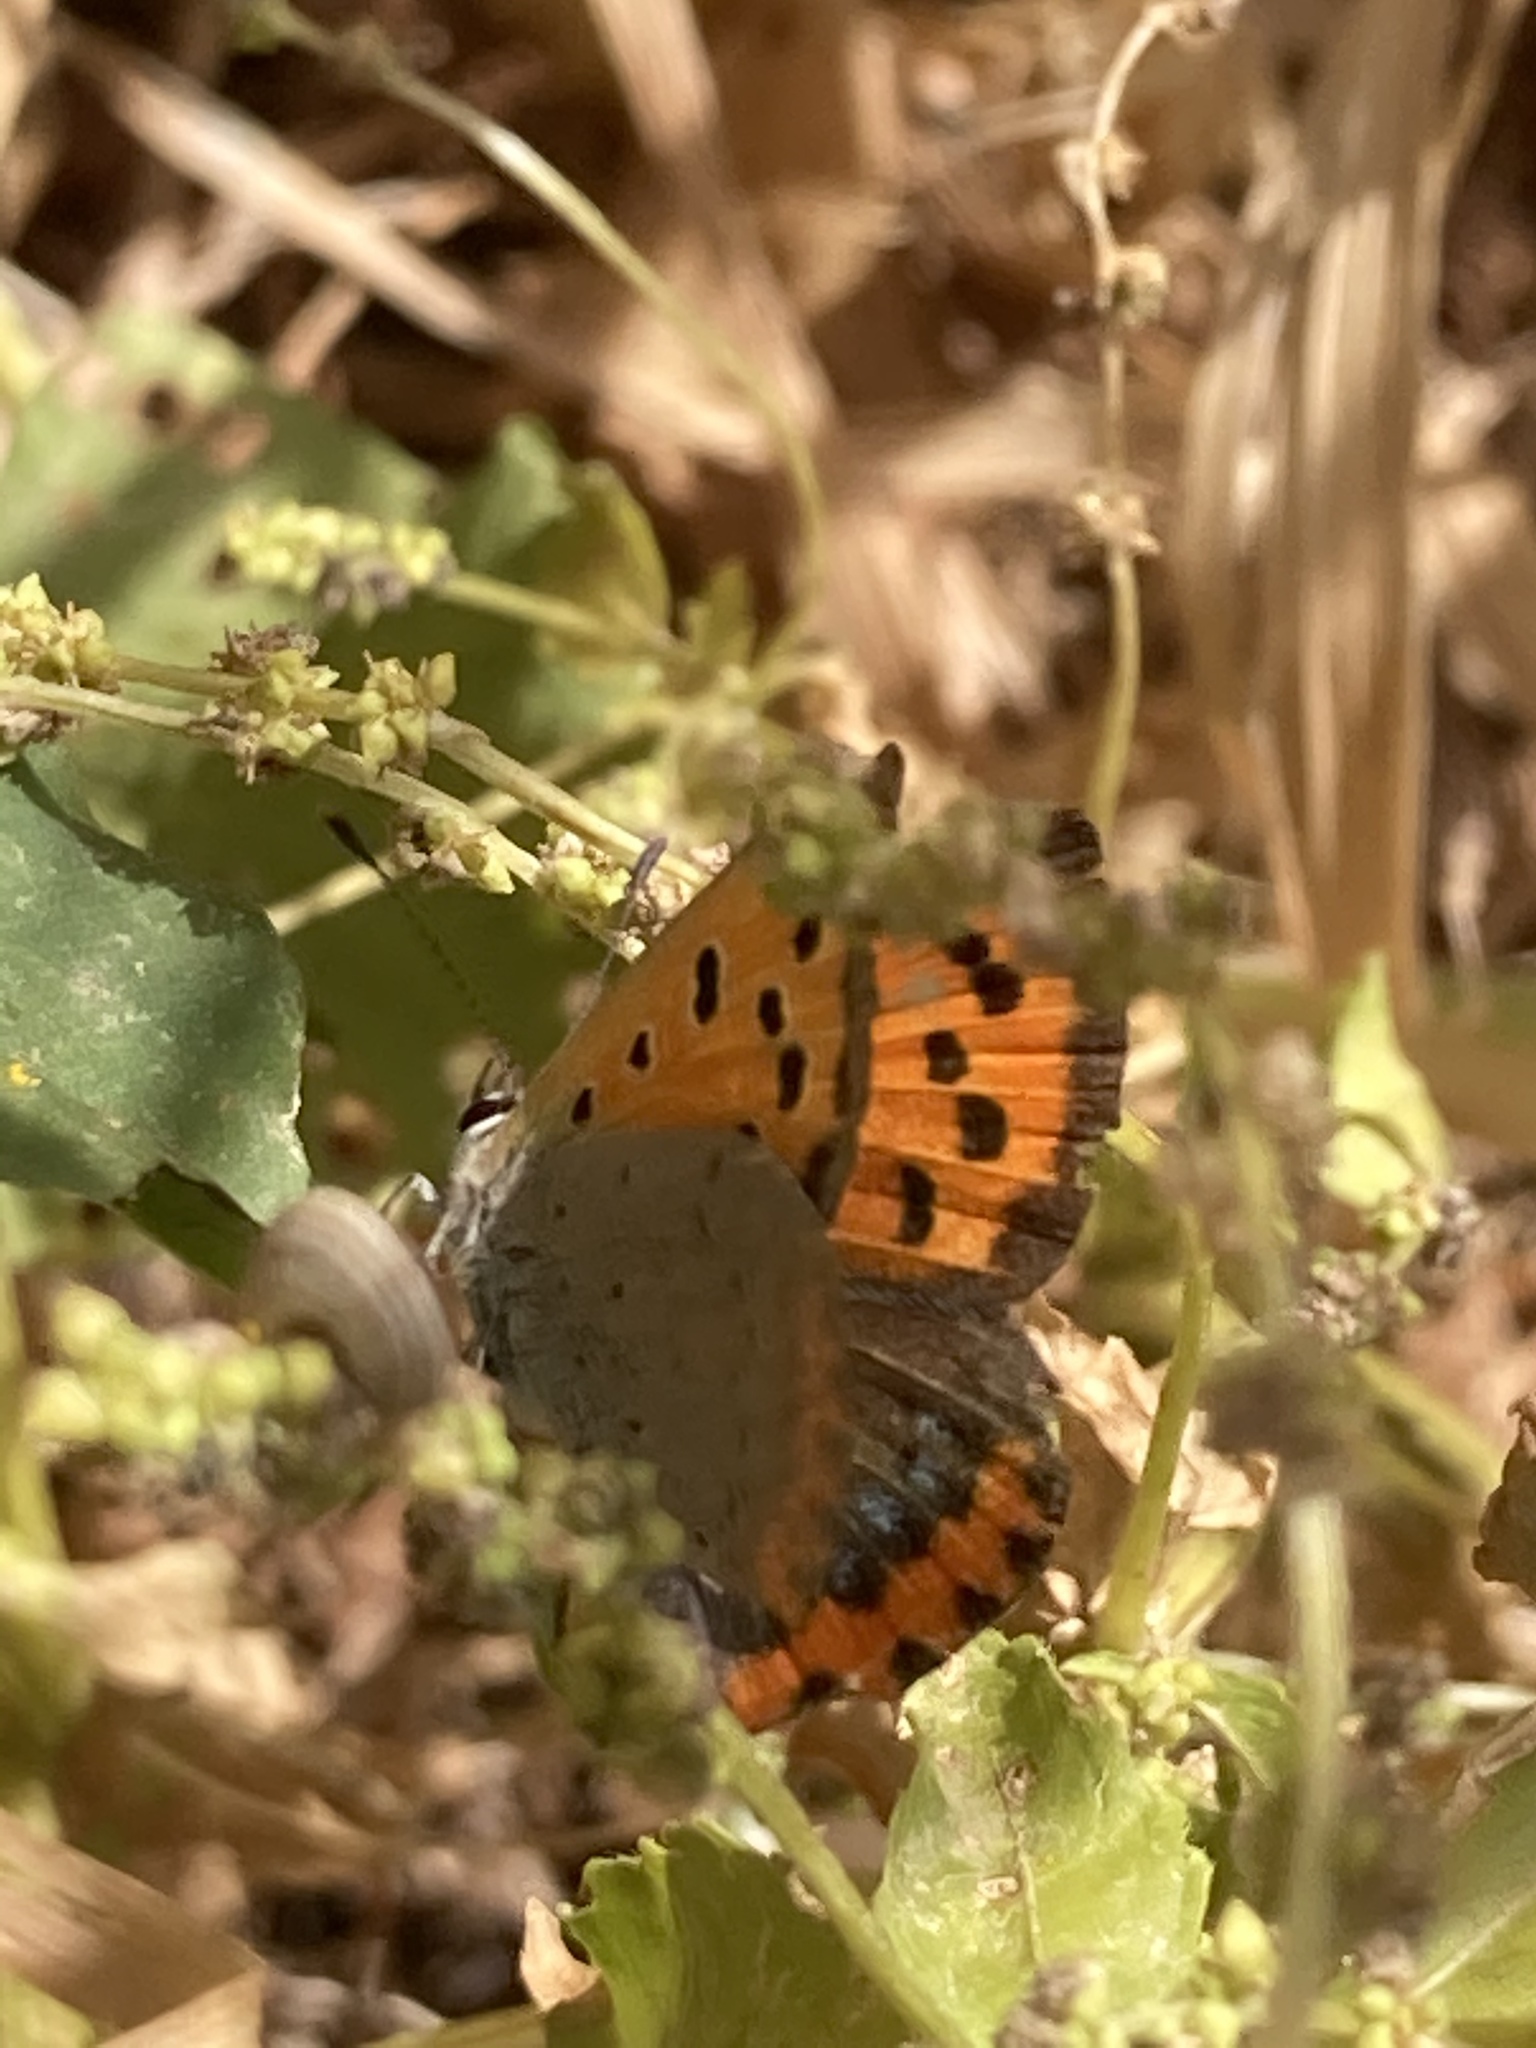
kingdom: Animalia
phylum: Arthropoda
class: Insecta
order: Lepidoptera
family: Lycaenidae
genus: Lycaena
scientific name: Lycaena phlaeas
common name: Small copper
